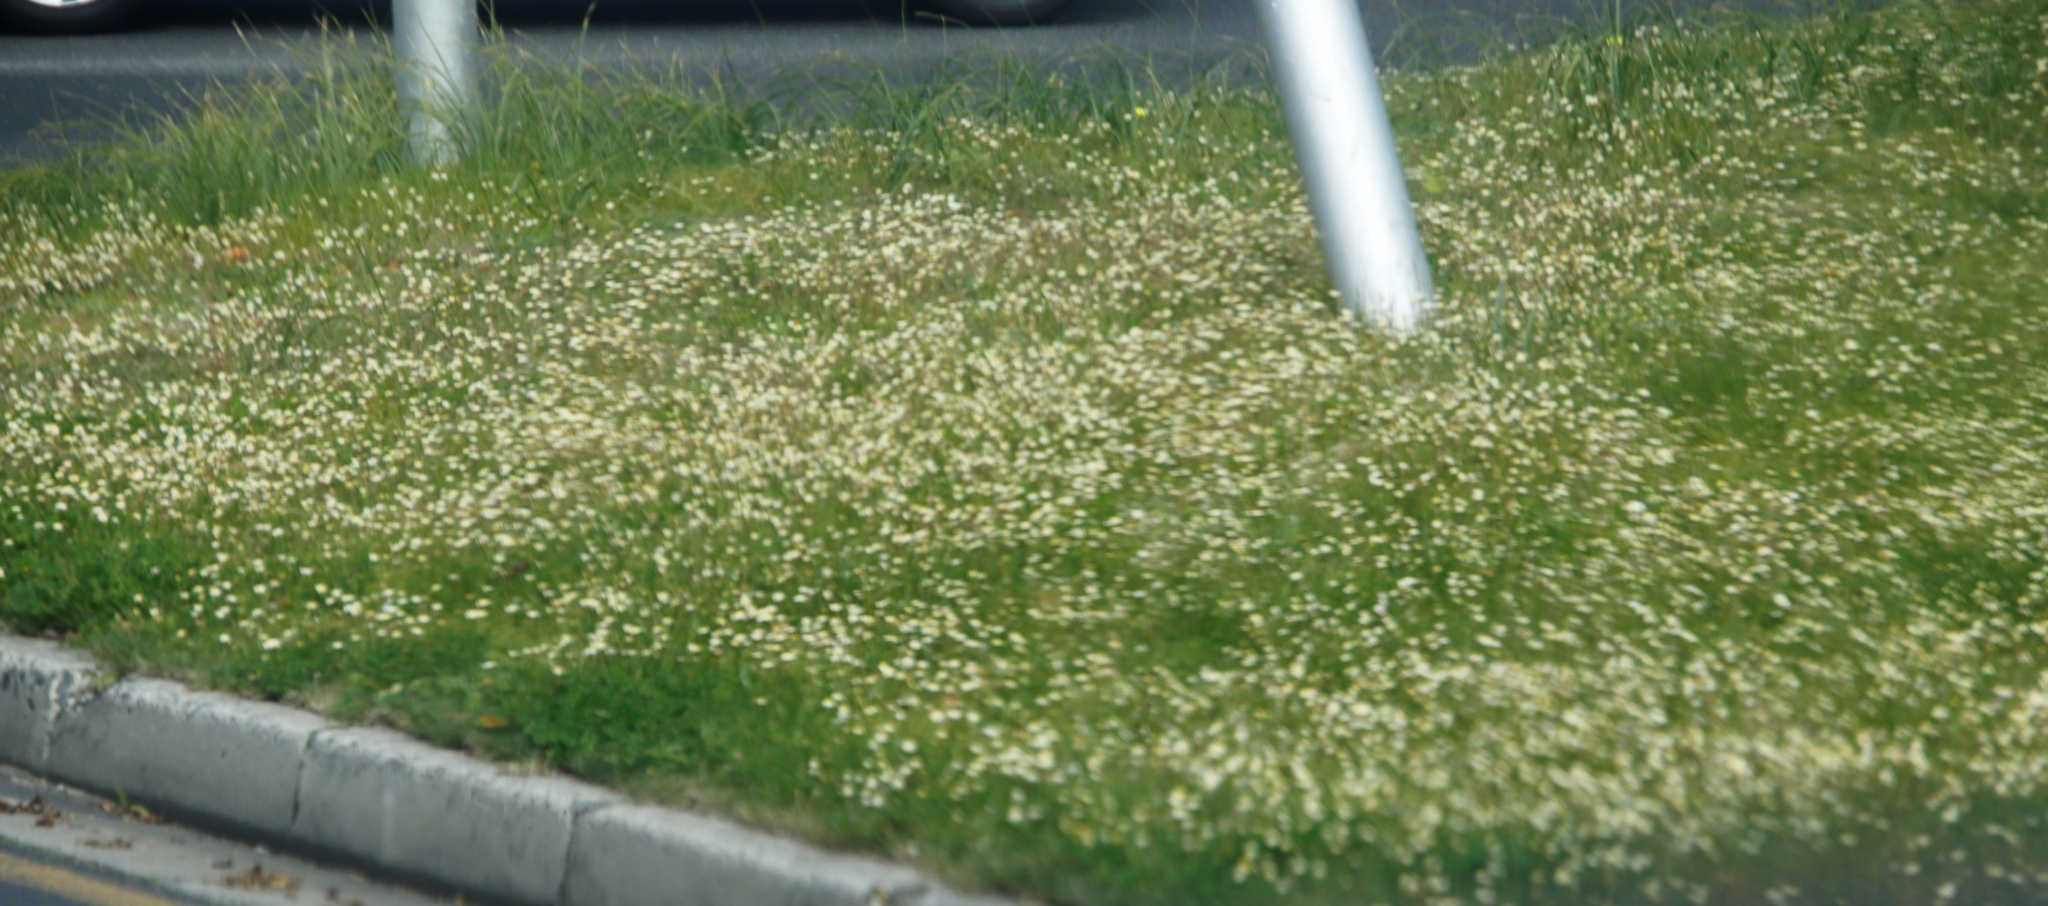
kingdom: Plantae
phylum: Tracheophyta
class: Magnoliopsida
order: Asterales
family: Asteraceae
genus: Cotula
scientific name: Cotula turbinata
